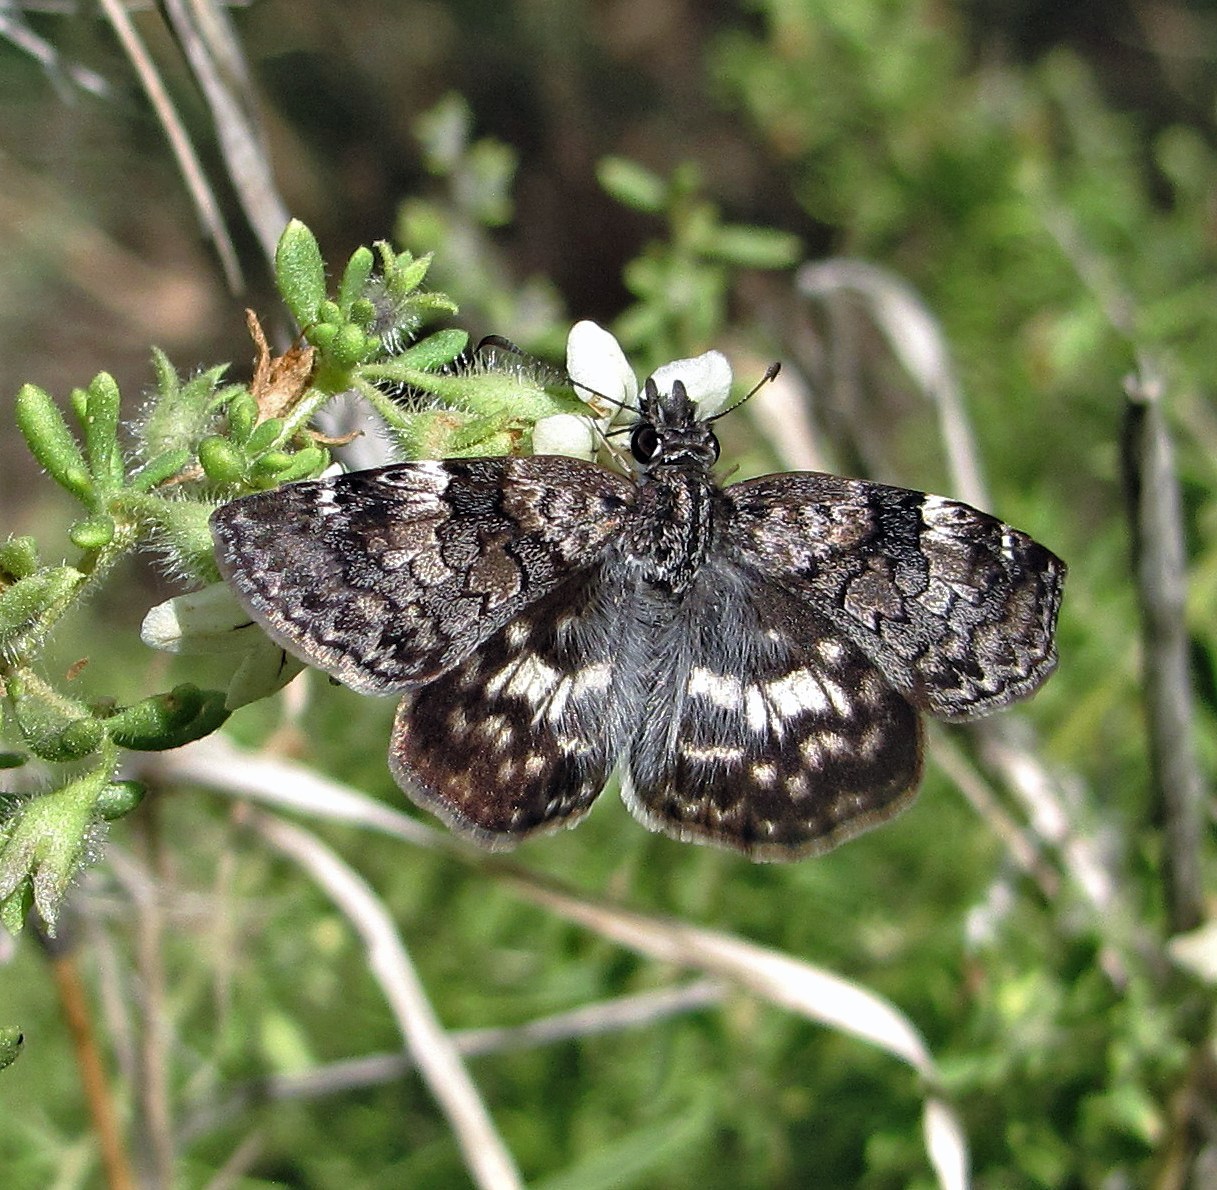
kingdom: Animalia
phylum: Arthropoda
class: Insecta
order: Lepidoptera
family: Hesperiidae
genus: Chiomara
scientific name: Chiomara asychis
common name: White-patterned skipper
